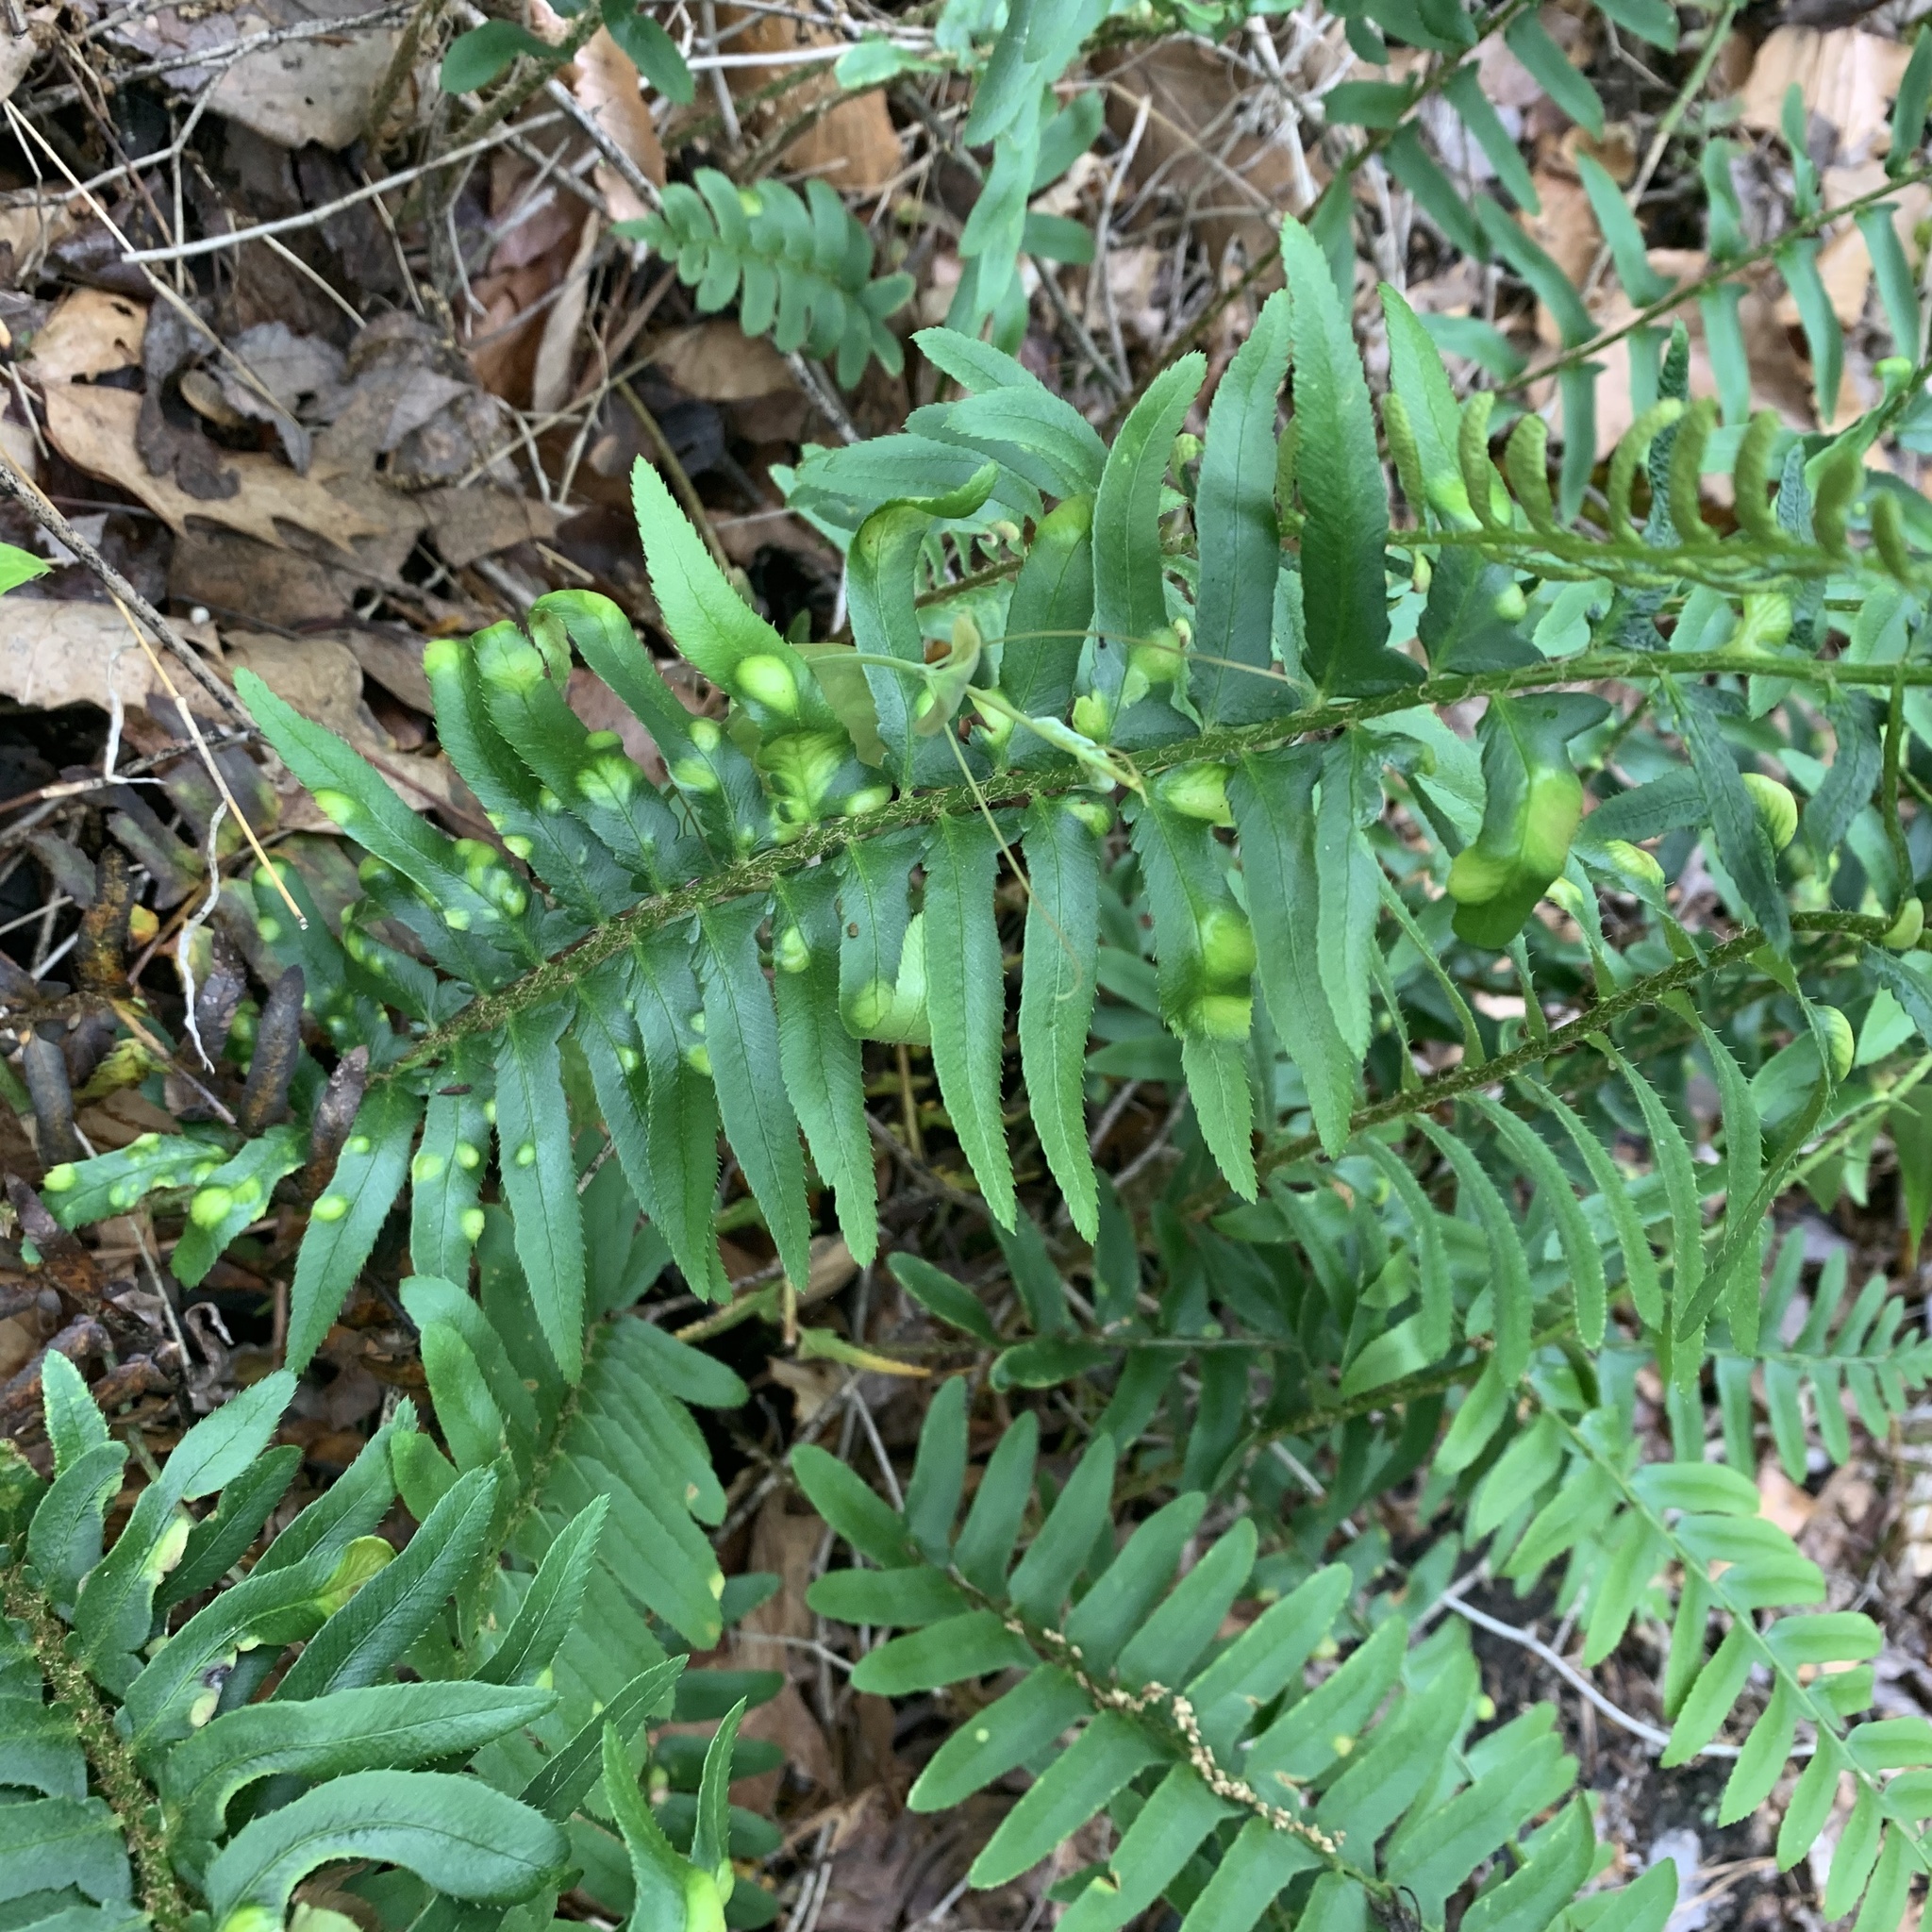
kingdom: Fungi
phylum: Ascomycota
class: Taphrinomycetes
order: Taphrinales
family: Taphrinaceae
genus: Taphrina
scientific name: Taphrina polystichi
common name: Christmas fern leaf curl
